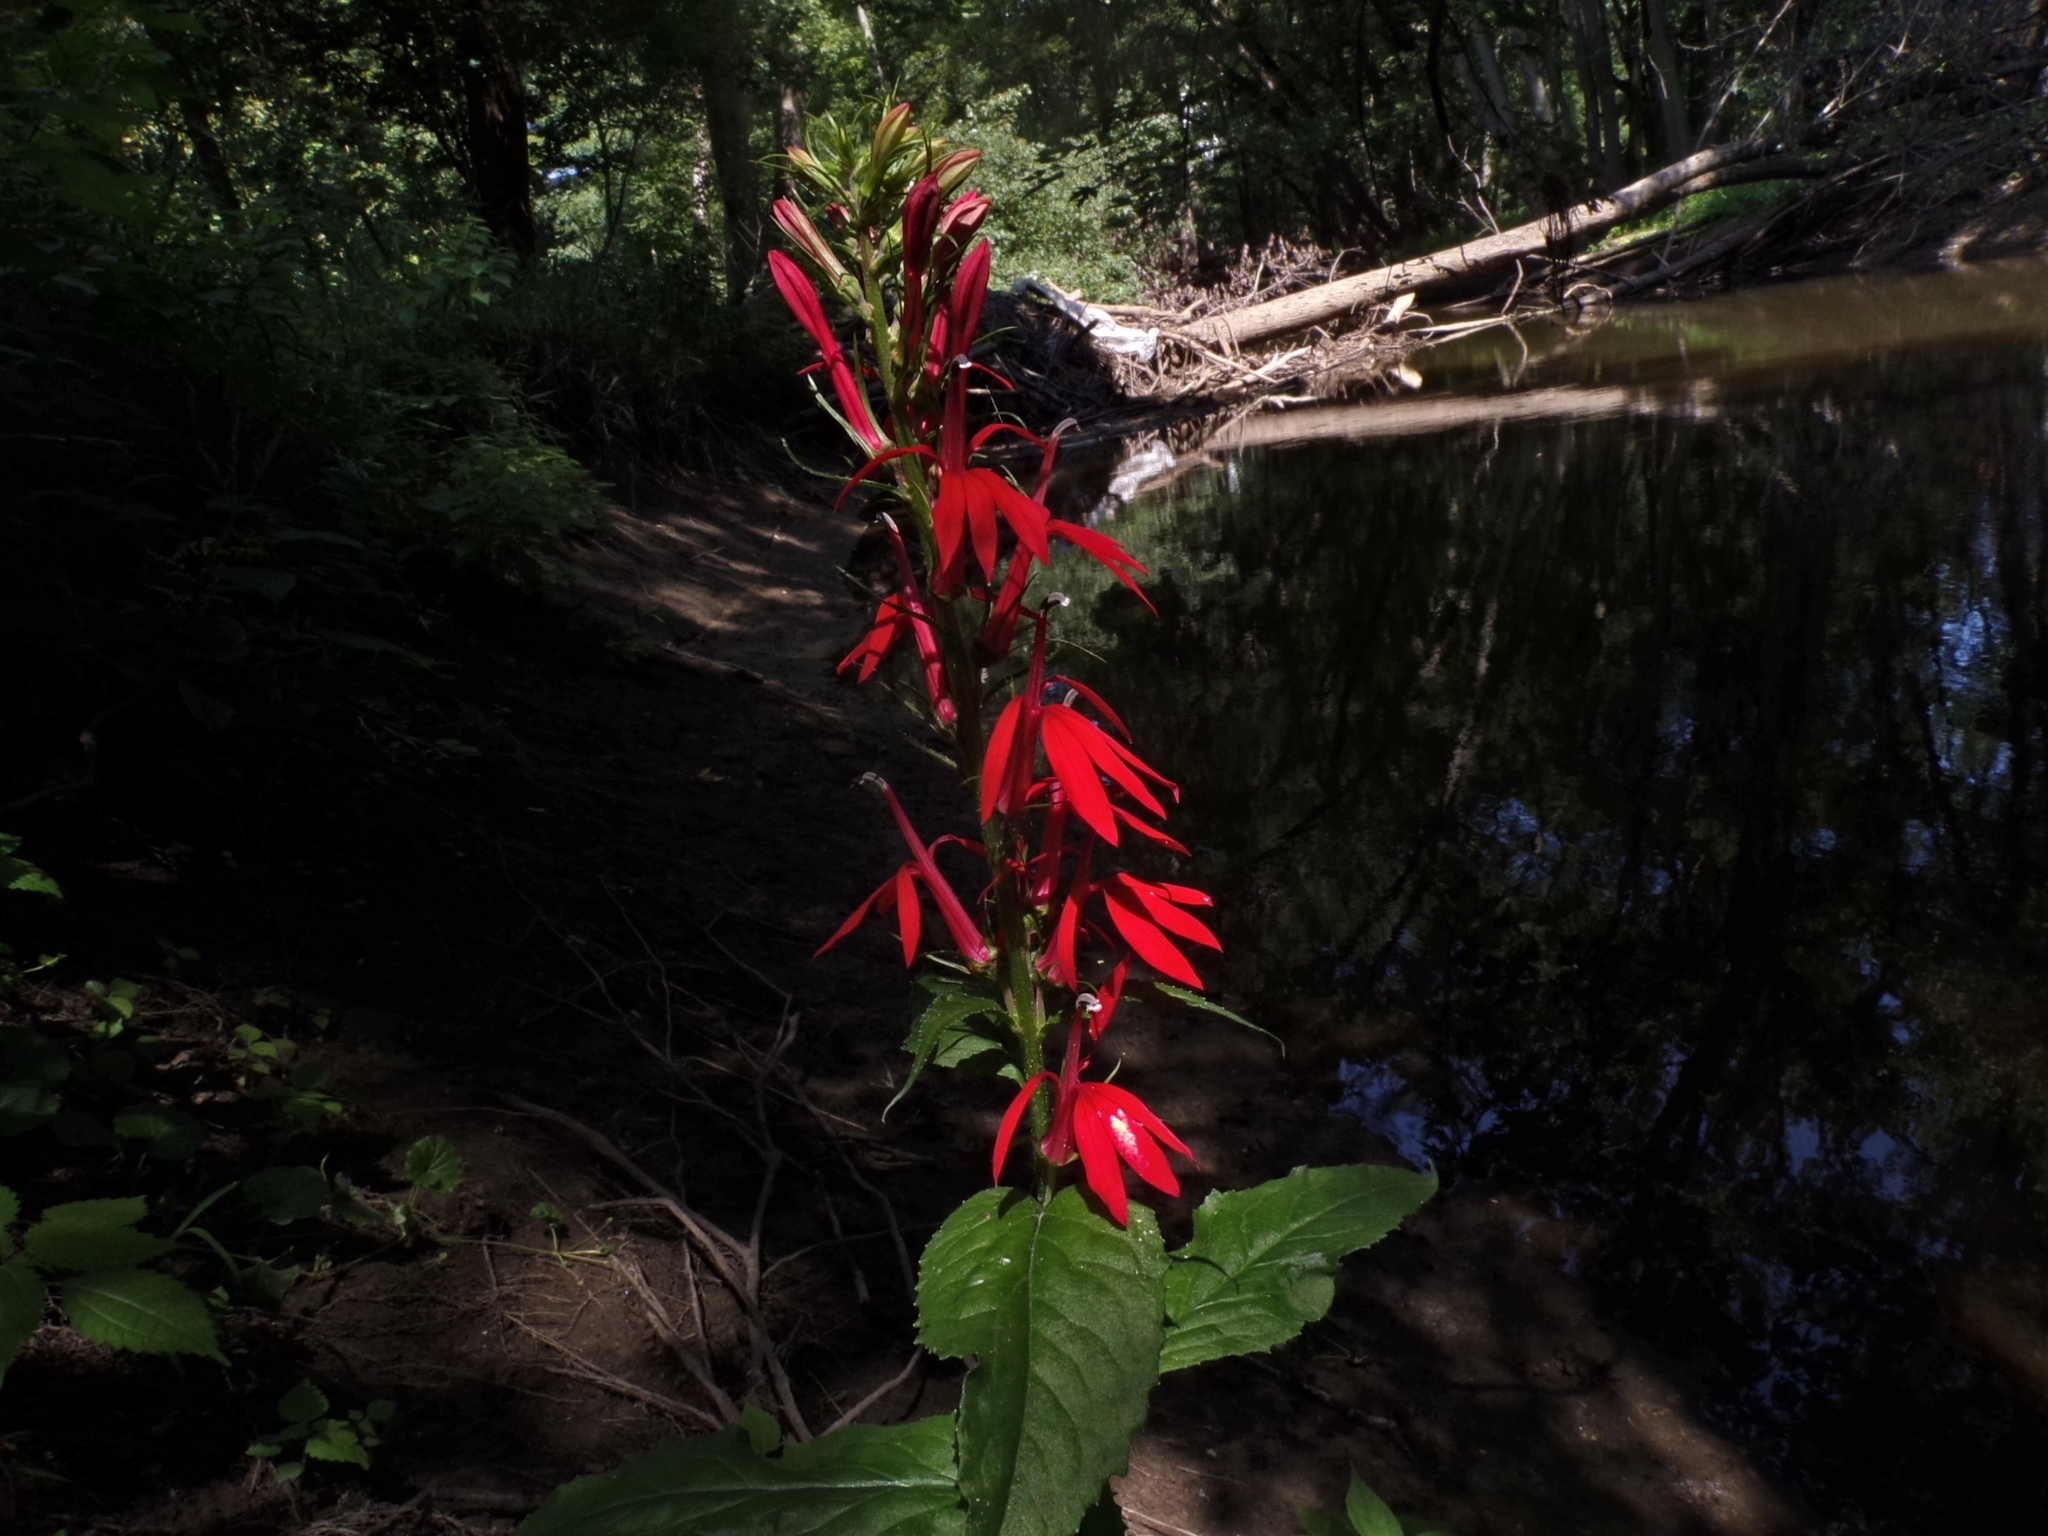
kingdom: Plantae
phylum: Tracheophyta
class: Magnoliopsida
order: Asterales
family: Campanulaceae
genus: Lobelia
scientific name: Lobelia cardinalis
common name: Cardinal flower
